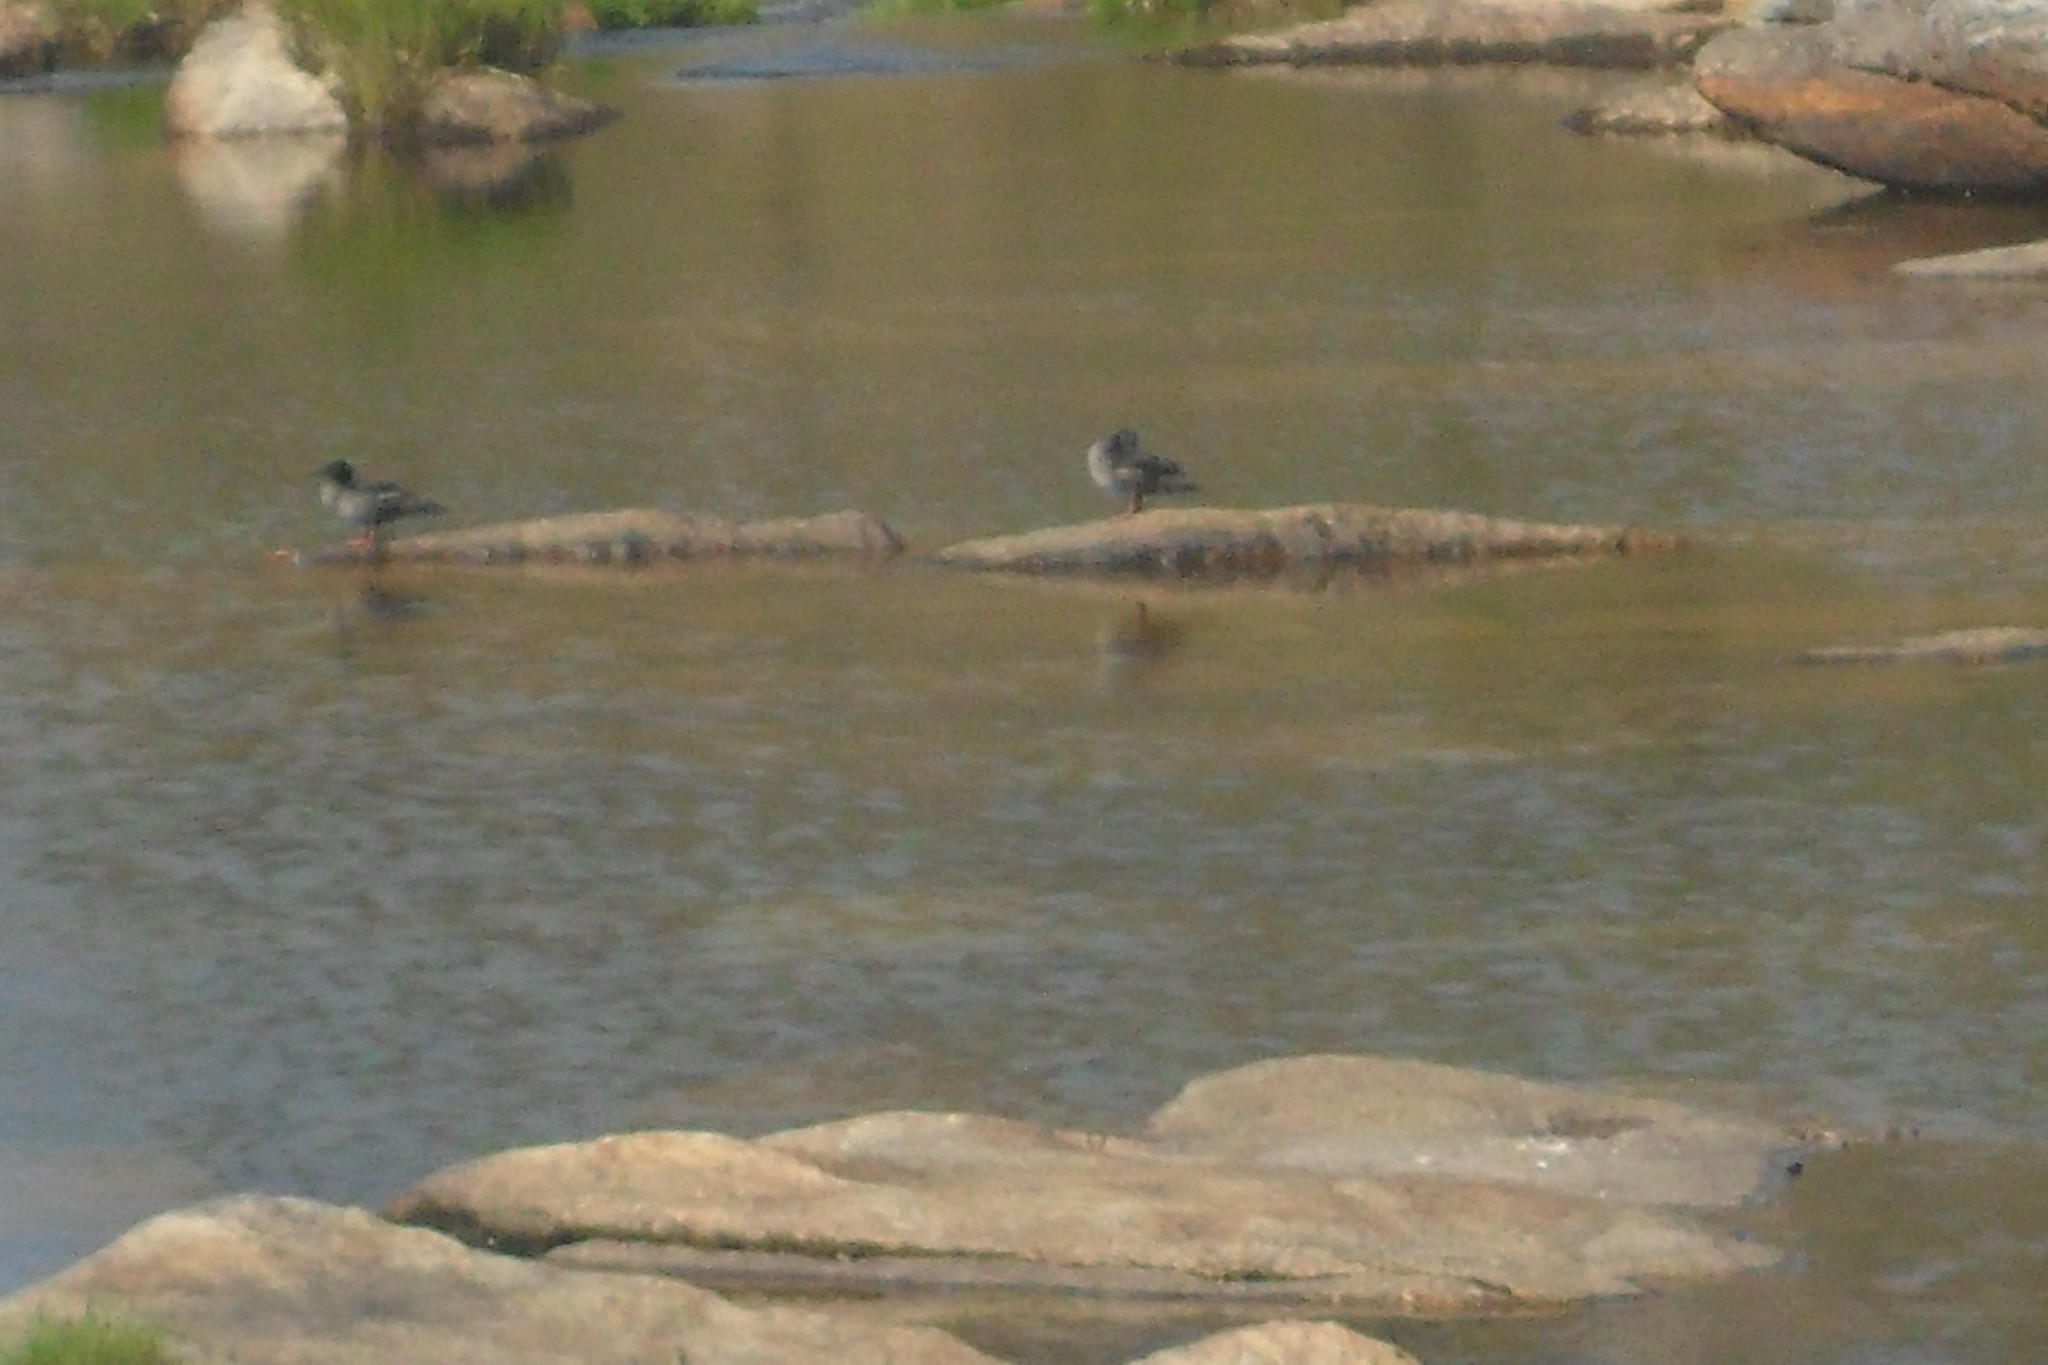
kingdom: Animalia
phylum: Chordata
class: Aves
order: Anseriformes
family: Anatidae
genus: Mergus
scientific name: Mergus octosetaceus
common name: Brazilian merganser
